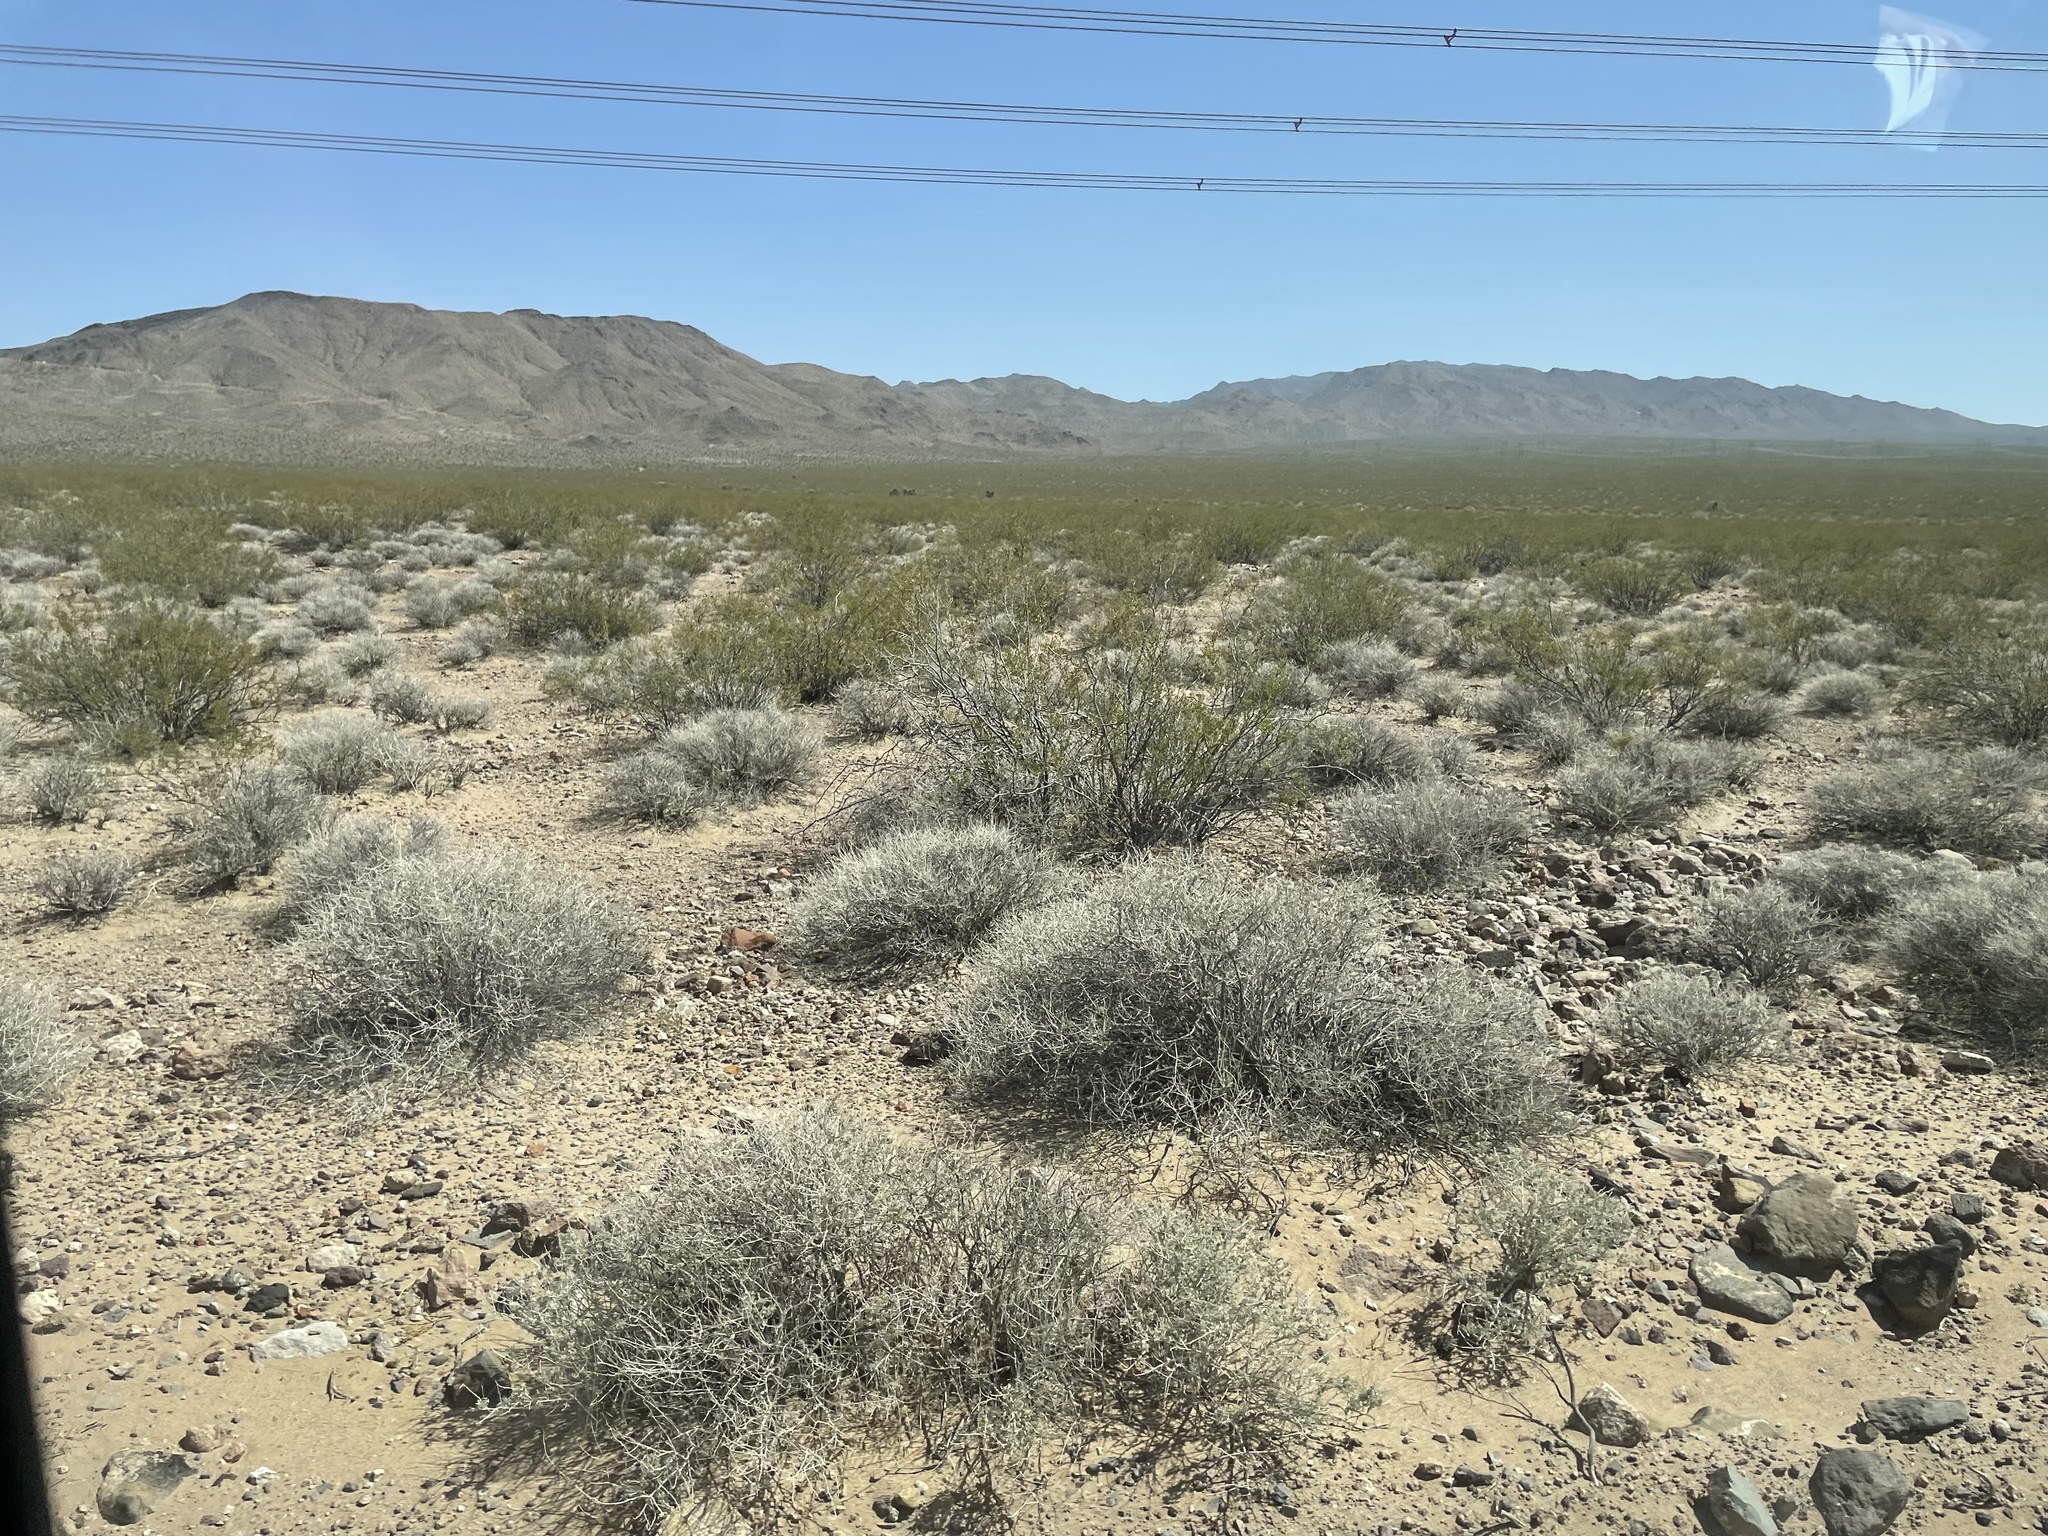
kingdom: Plantae
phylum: Tracheophyta
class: Magnoliopsida
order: Asterales
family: Asteraceae
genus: Ambrosia
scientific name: Ambrosia dumosa
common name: Bur-sage
